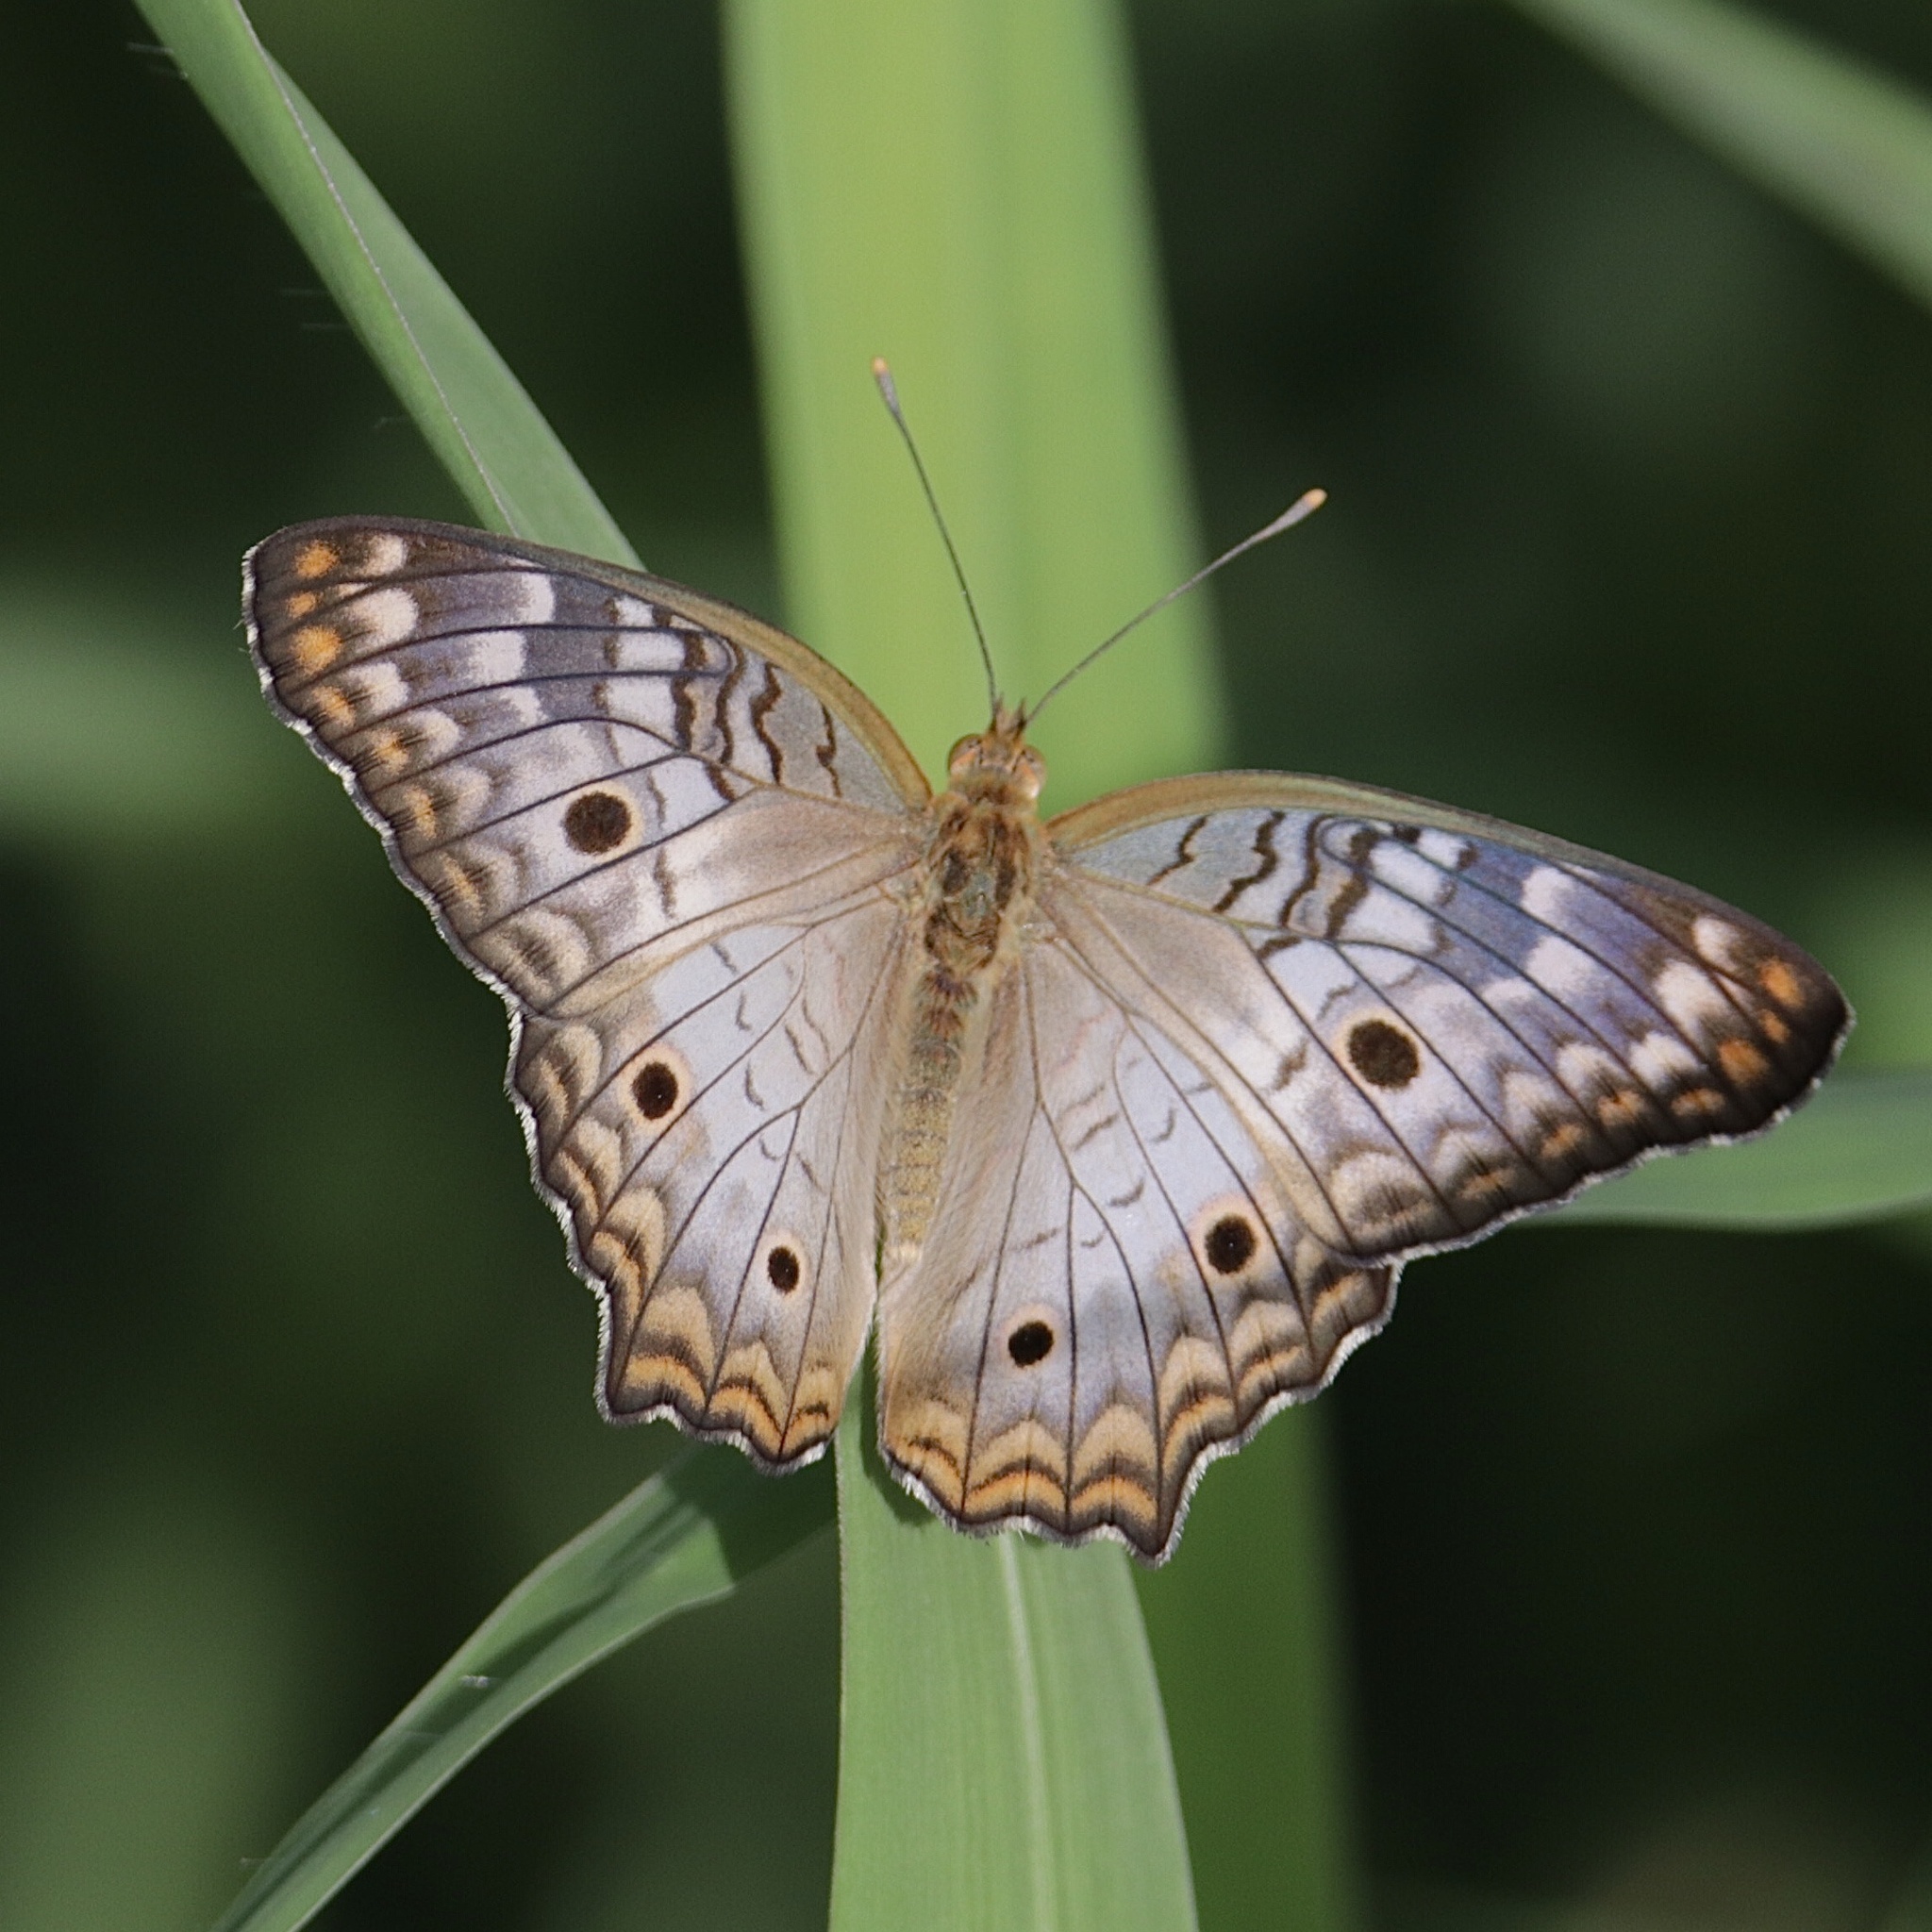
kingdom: Animalia
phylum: Arthropoda
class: Insecta
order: Lepidoptera
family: Nymphalidae
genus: Anartia
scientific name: Anartia jatrophae
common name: White peacock
